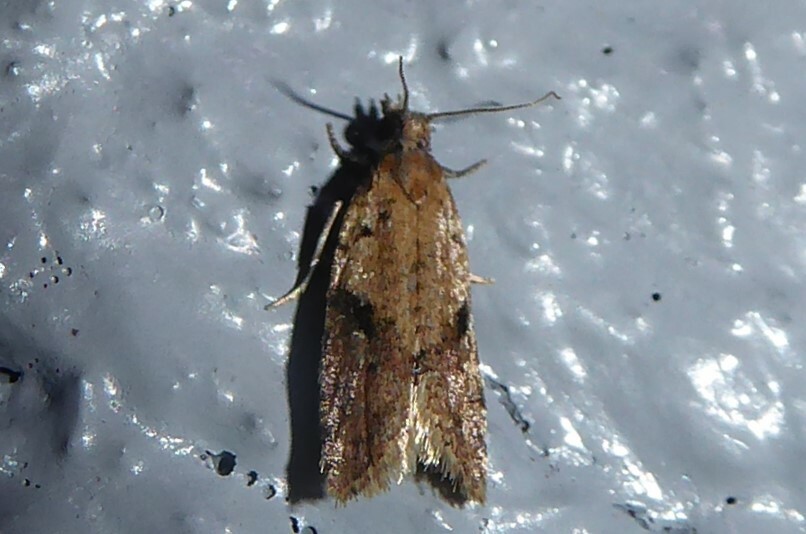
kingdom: Animalia
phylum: Arthropoda
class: Insecta
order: Lepidoptera
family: Tortricidae
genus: Capua
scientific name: Capua semiferana
